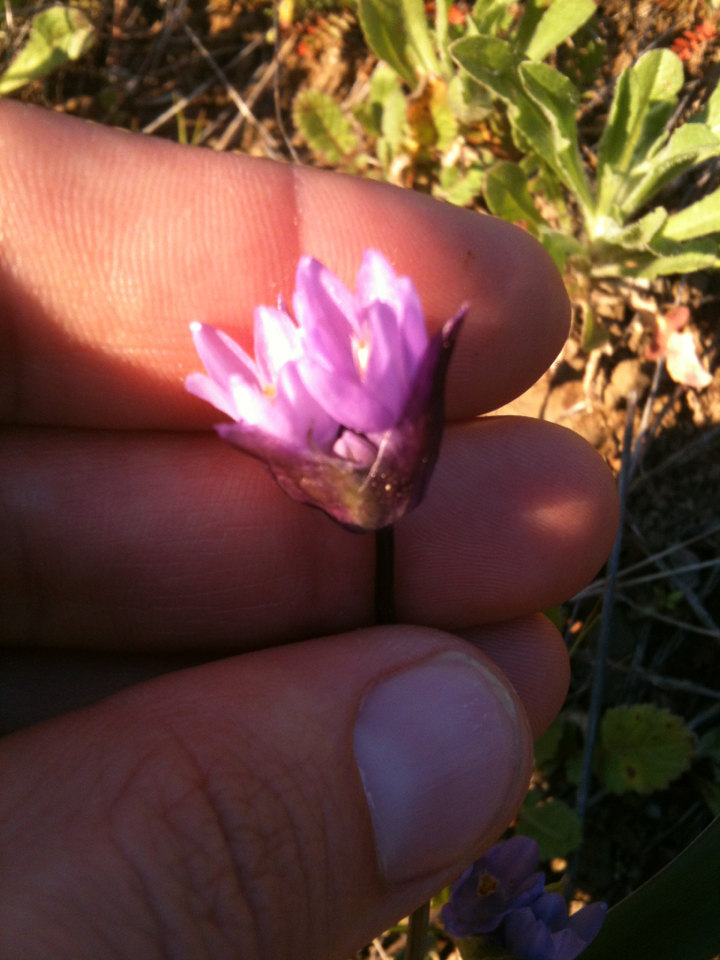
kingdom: Plantae
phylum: Tracheophyta
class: Liliopsida
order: Asparagales
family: Asparagaceae
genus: Dipterostemon
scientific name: Dipterostemon capitatus
